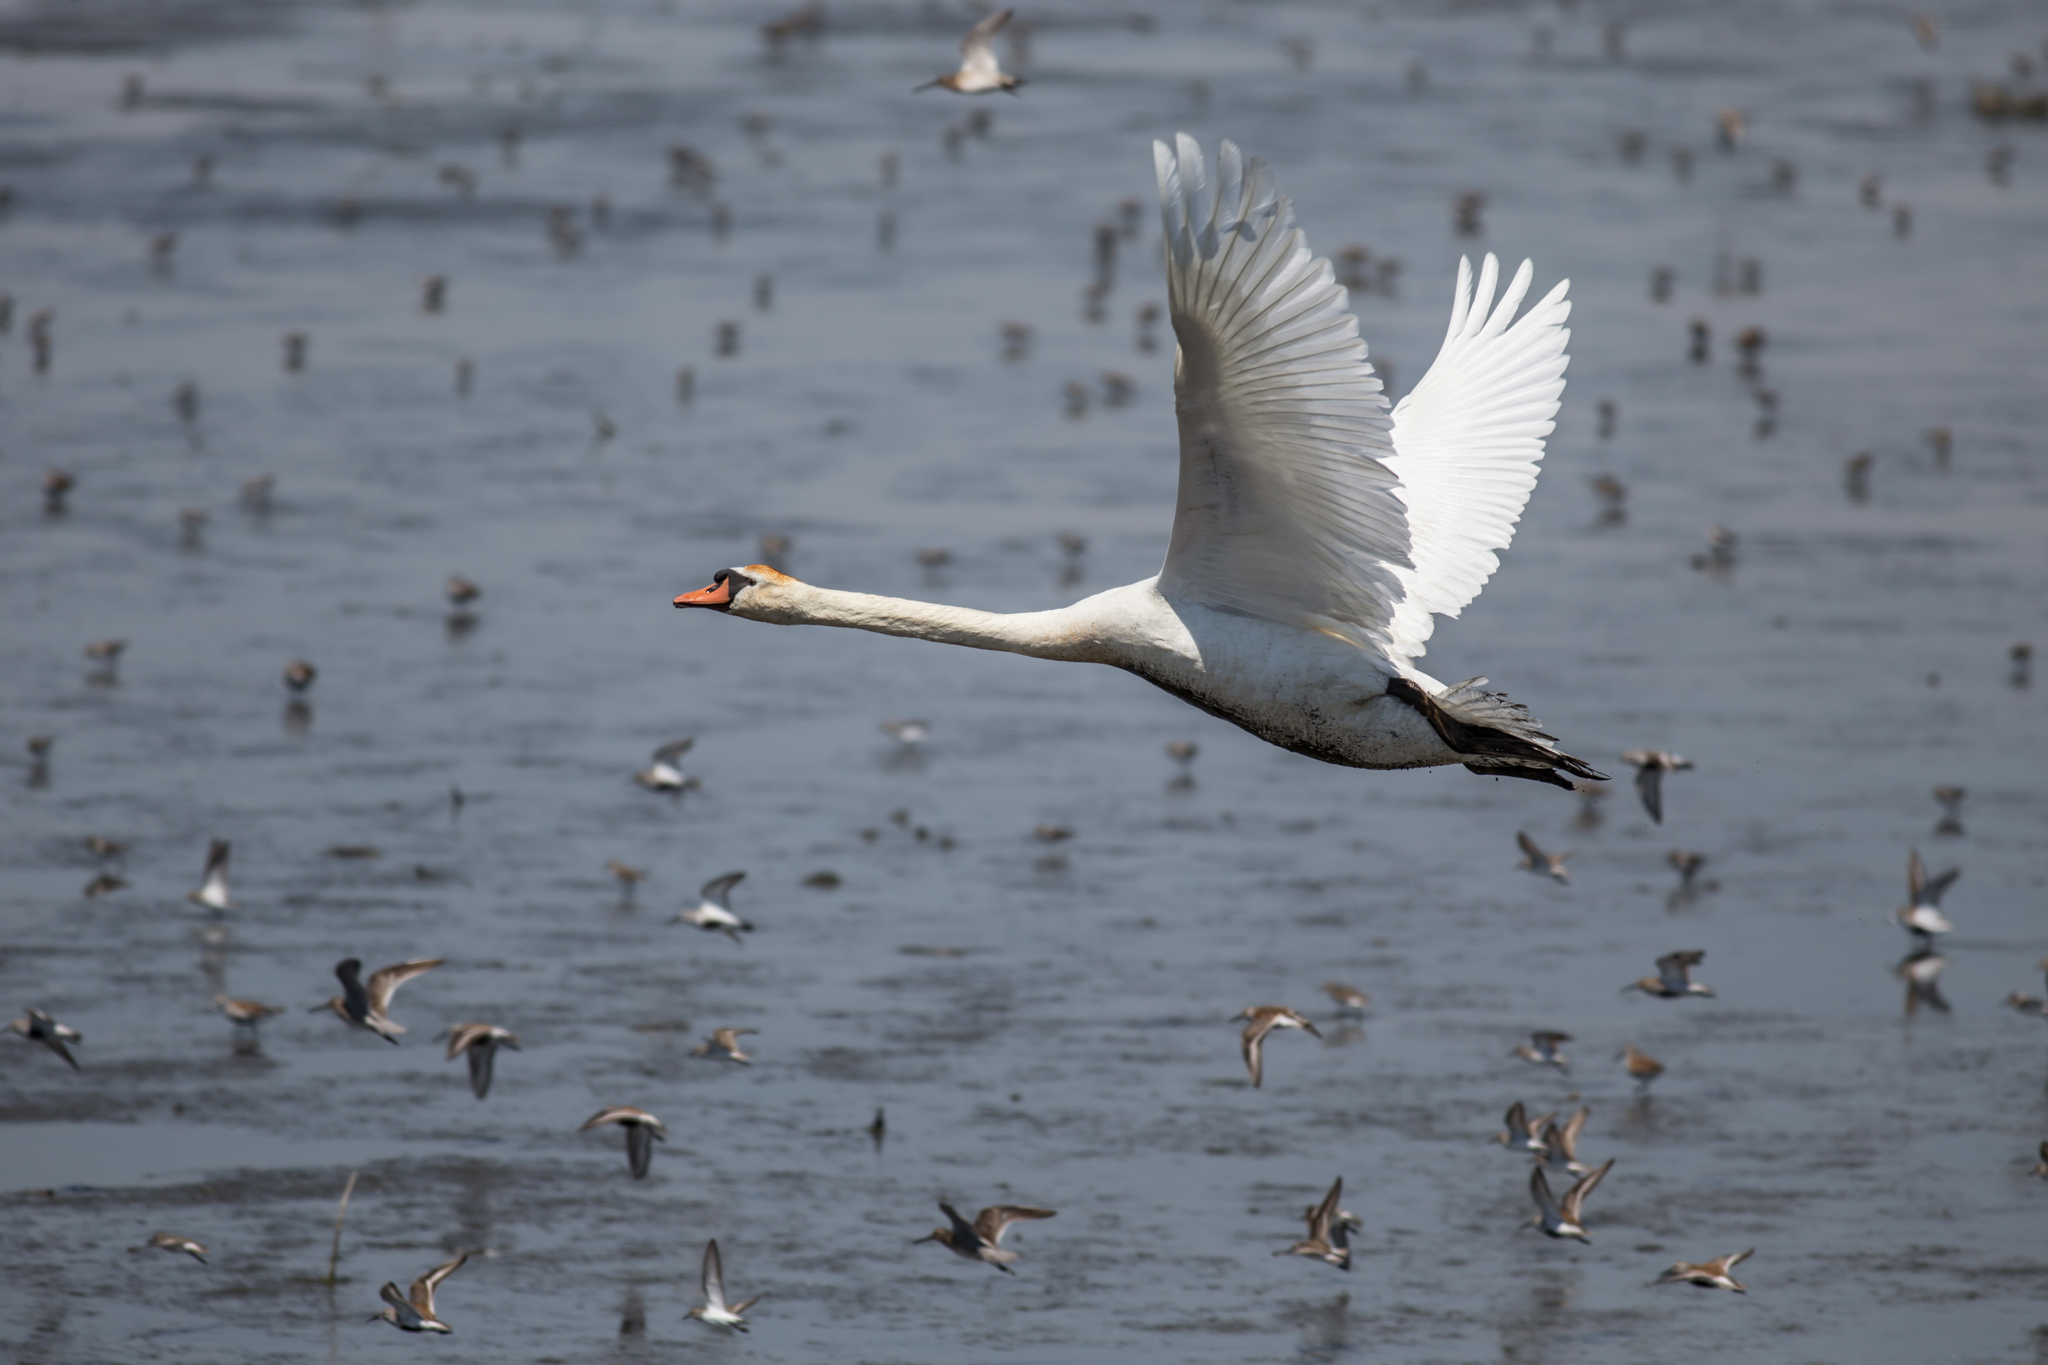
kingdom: Animalia
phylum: Chordata
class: Aves
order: Anseriformes
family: Anatidae
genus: Cygnus
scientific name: Cygnus olor
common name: Mute swan
